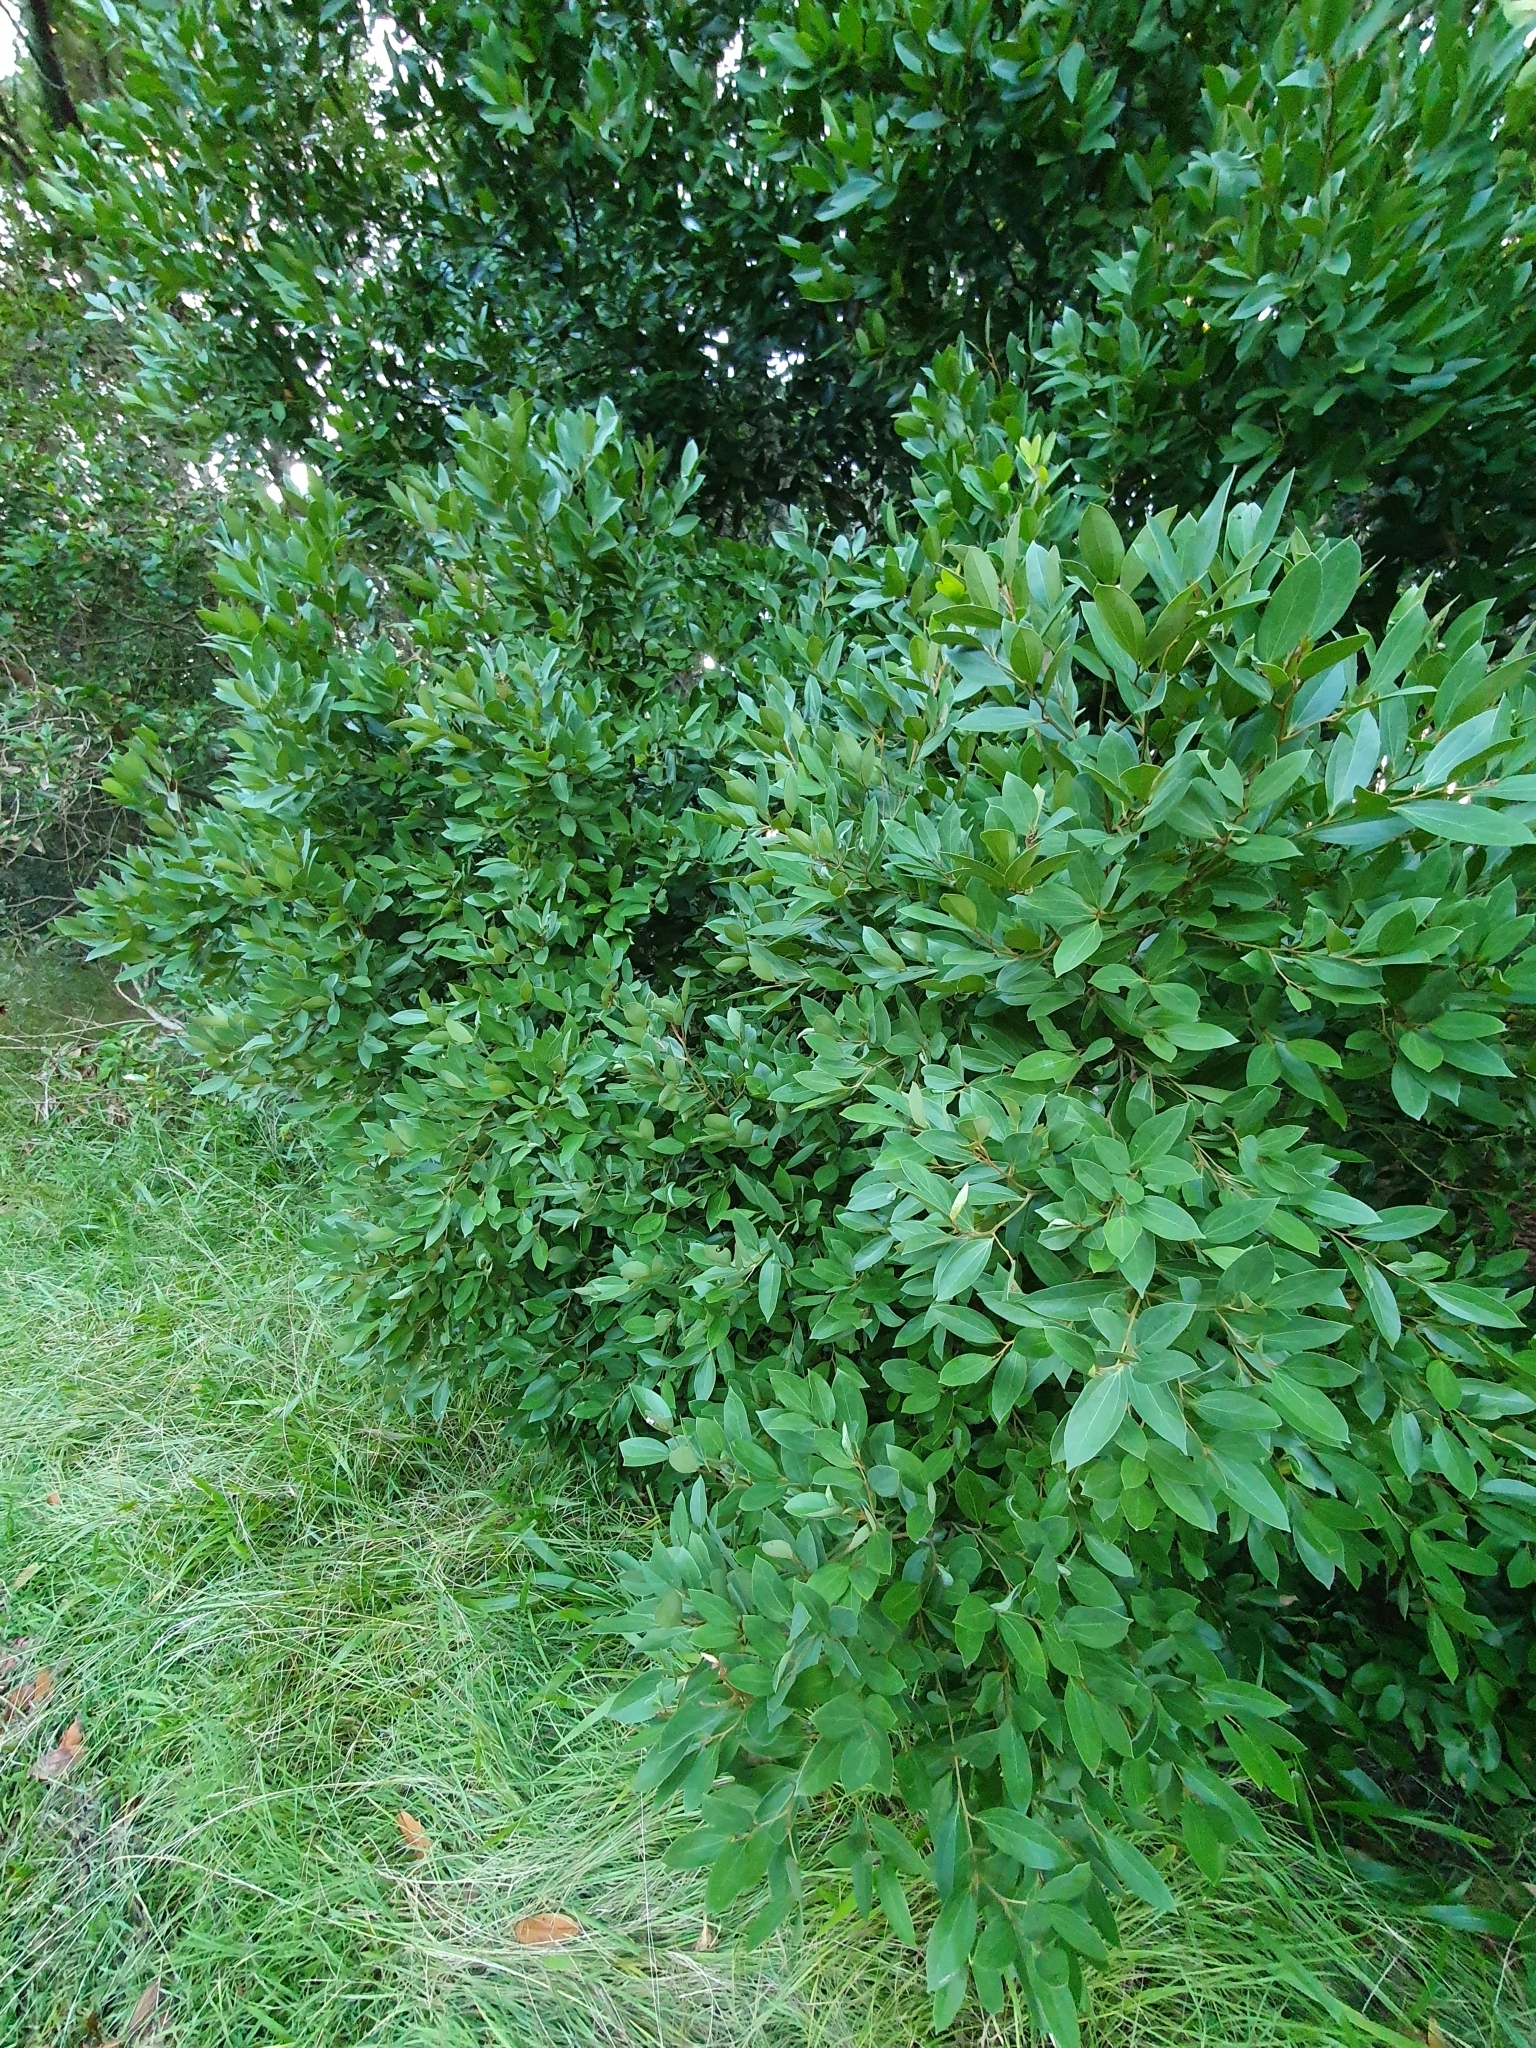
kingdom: Plantae
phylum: Tracheophyta
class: Magnoliopsida
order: Laurales
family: Lauraceae
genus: Cryptocarya
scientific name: Cryptocarya triplinervis
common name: Three-vein cryptocarya
